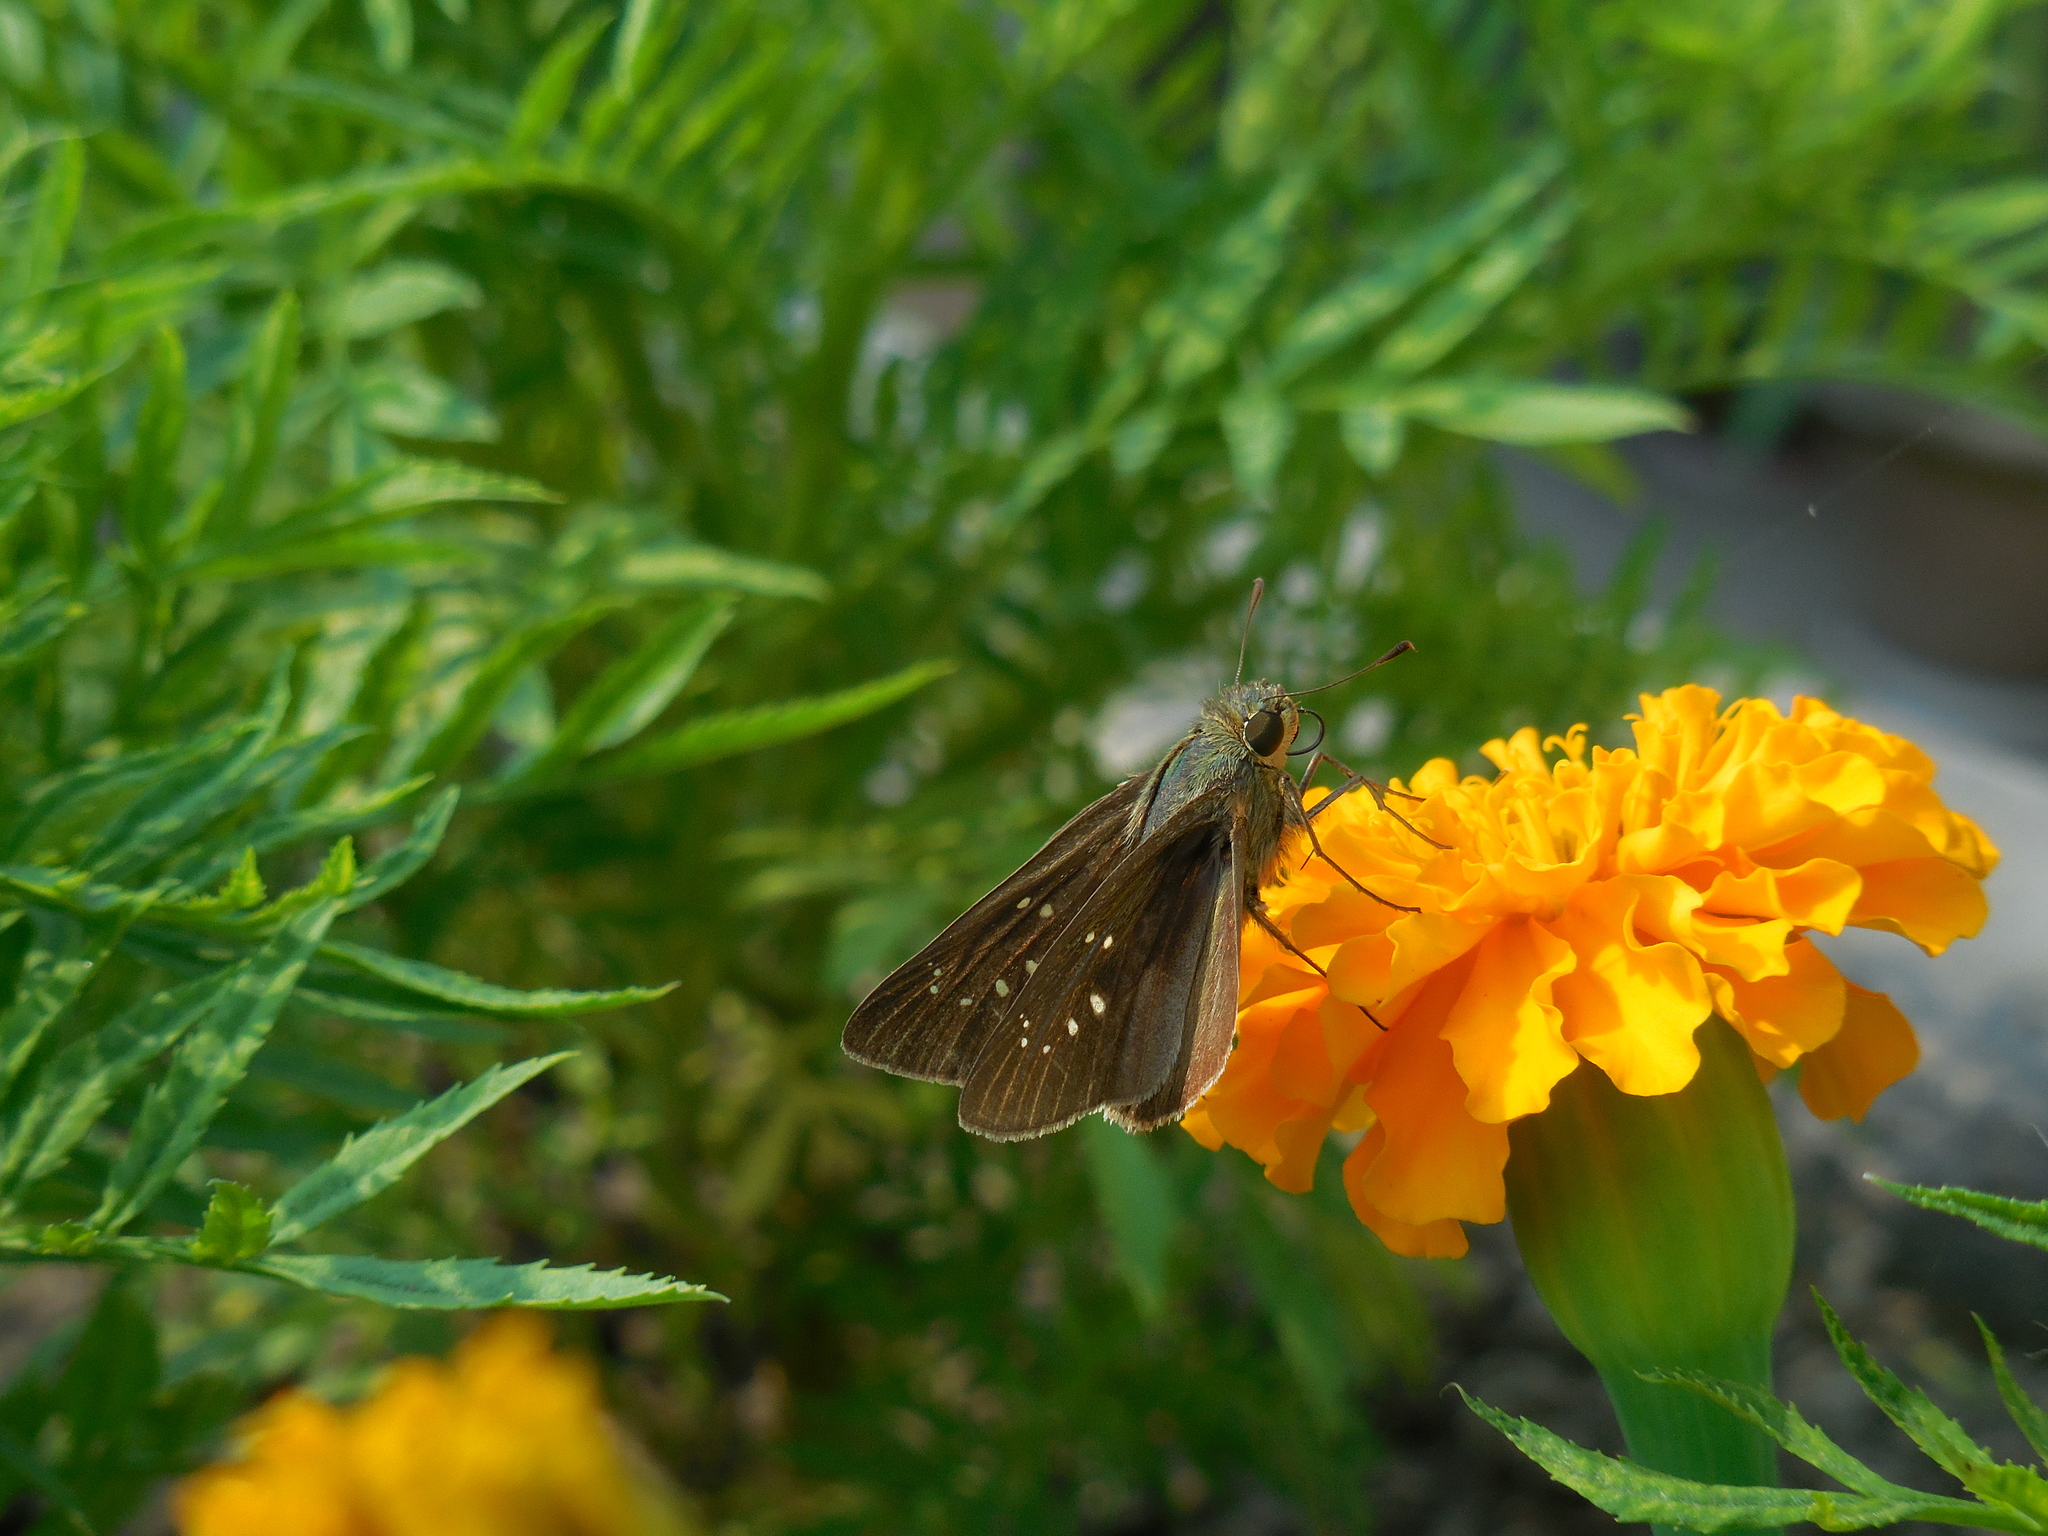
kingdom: Animalia
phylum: Arthropoda
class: Insecta
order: Lepidoptera
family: Hesperiidae
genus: Pelopidas
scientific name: Pelopidas agna
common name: Little branded swift
